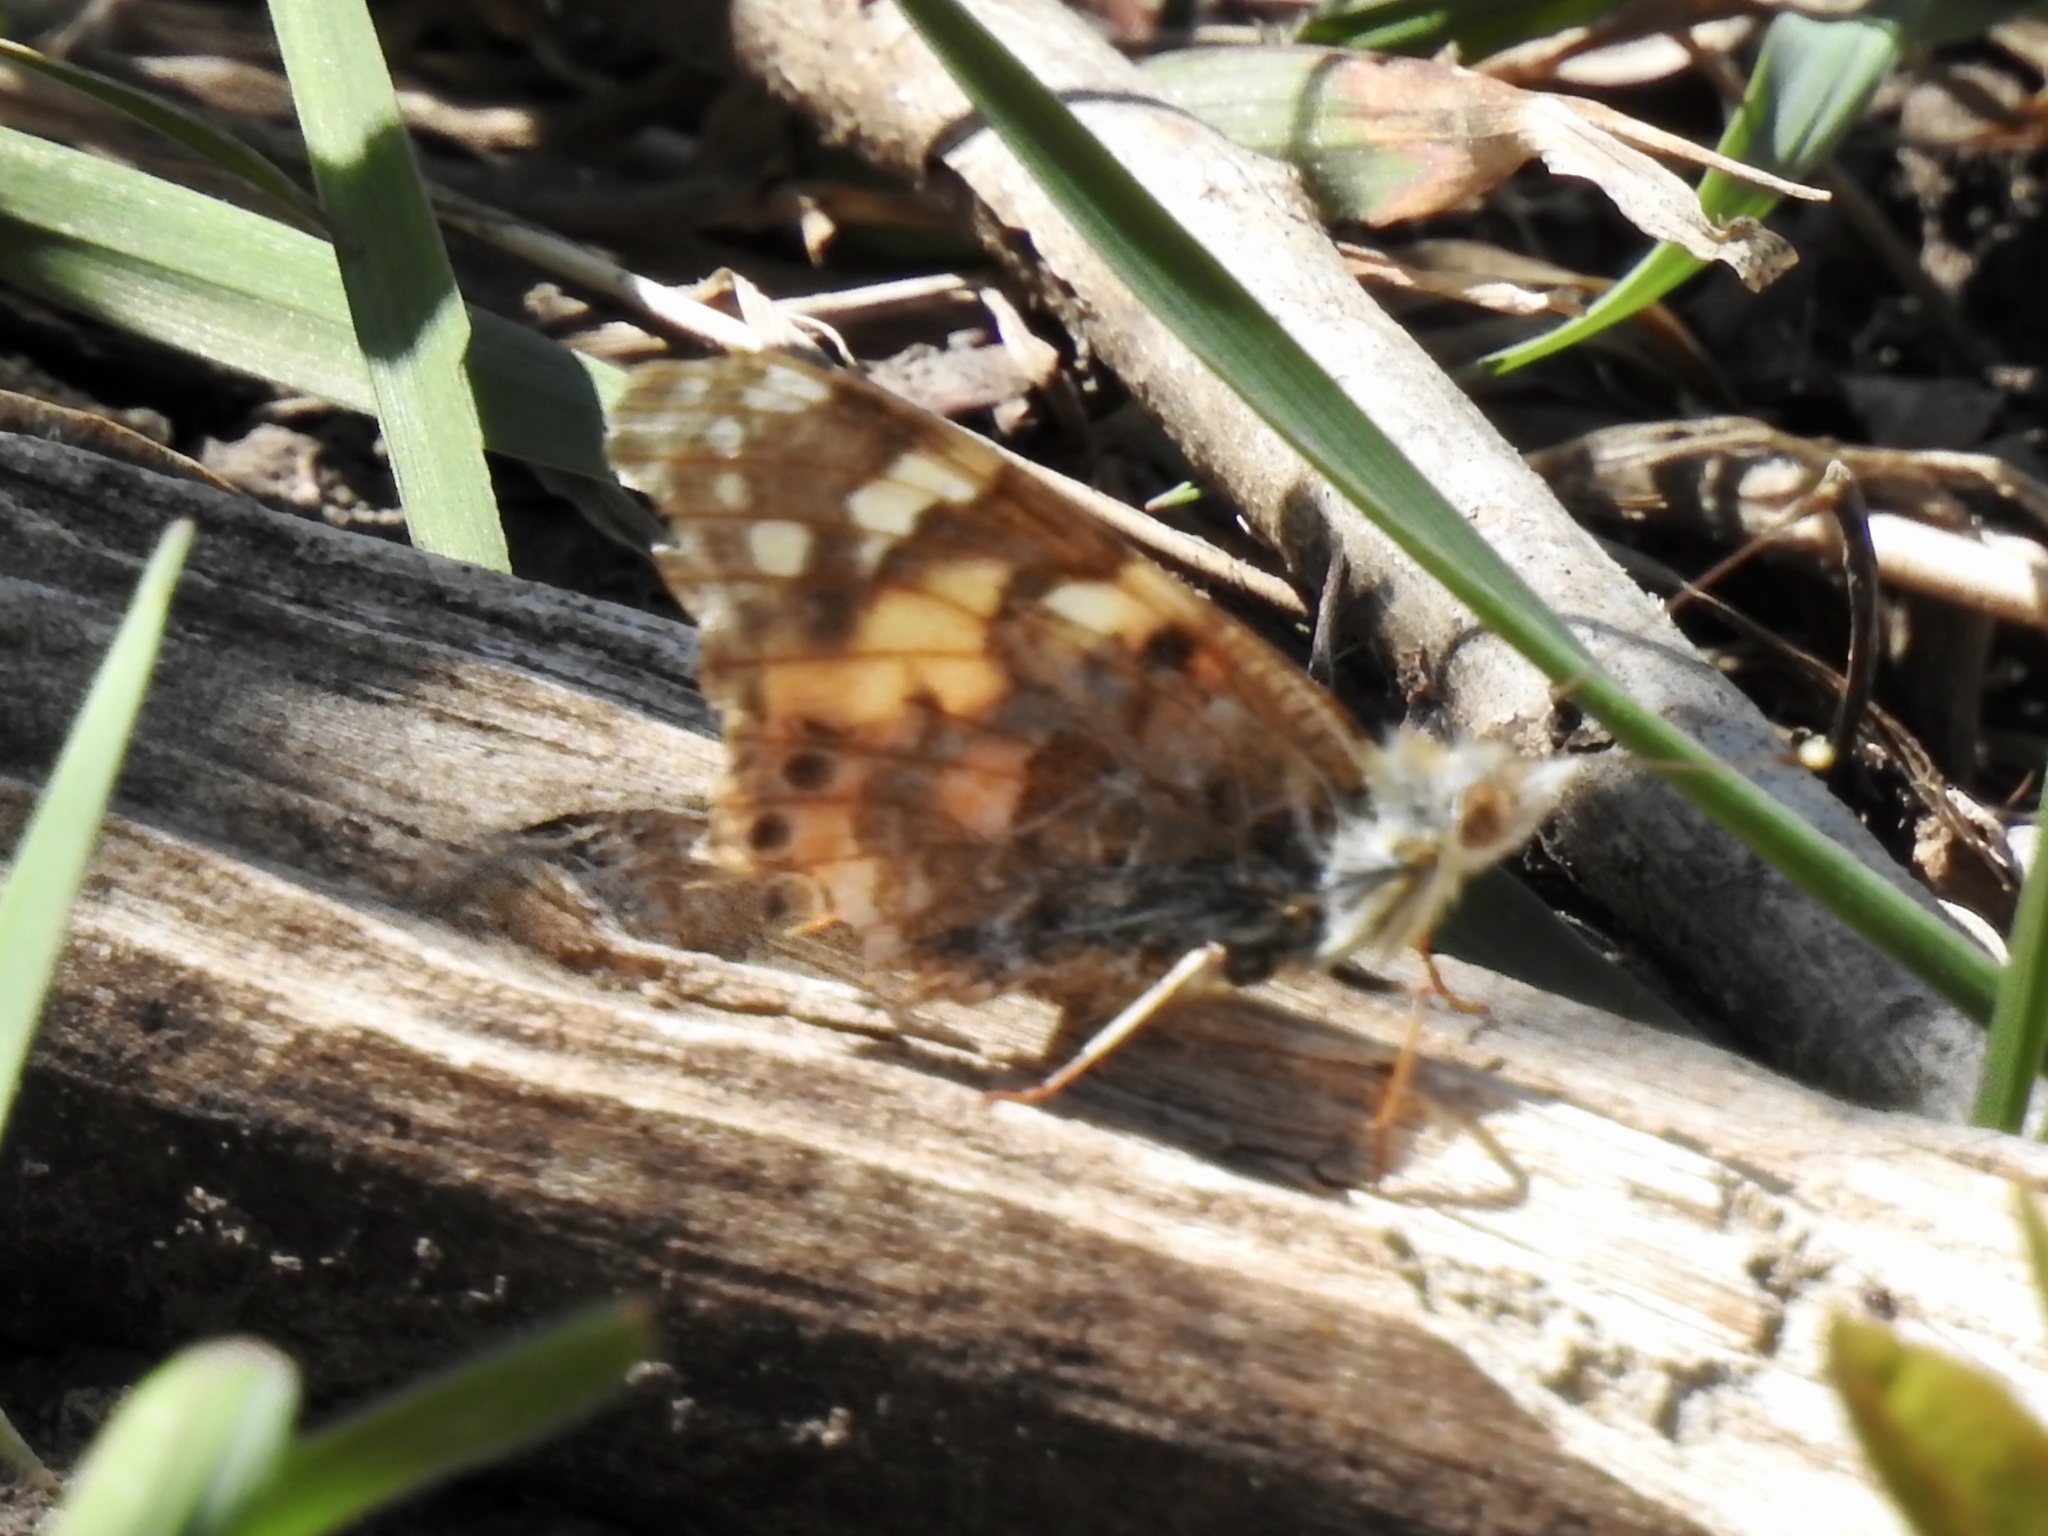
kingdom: Animalia
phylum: Arthropoda
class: Insecta
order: Lepidoptera
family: Nymphalidae
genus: Vanessa
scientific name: Vanessa cardui
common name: Painted lady
